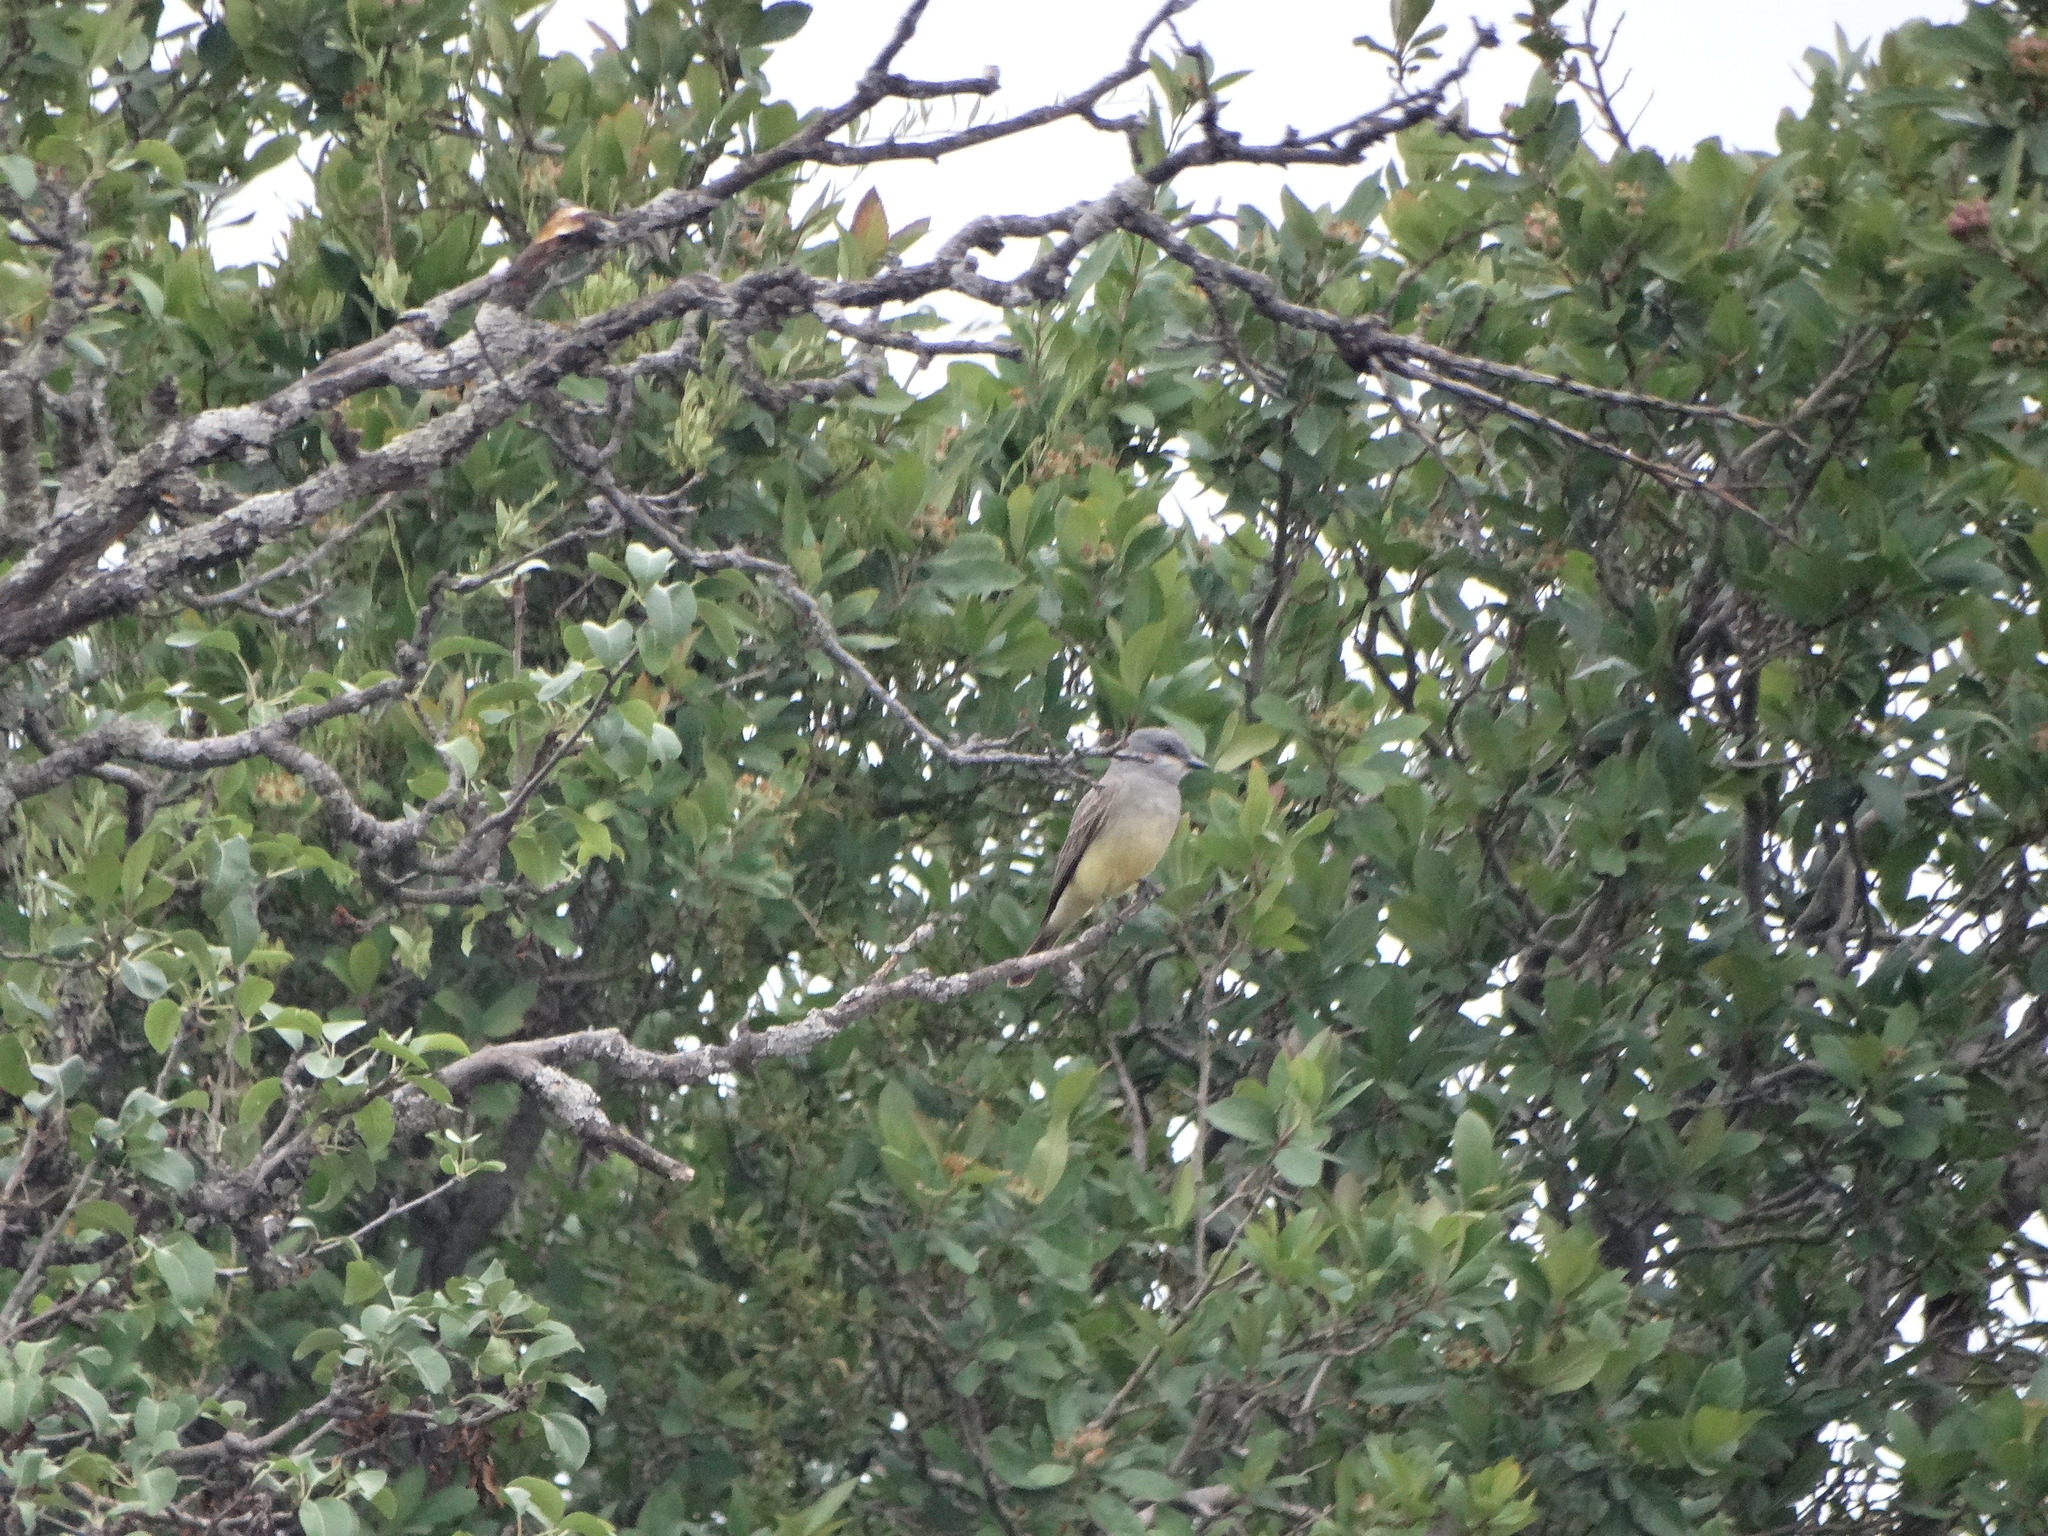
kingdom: Animalia
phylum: Chordata
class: Aves
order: Passeriformes
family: Tyrannidae
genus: Tyrannus
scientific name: Tyrannus vociferans
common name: Cassin's kingbird
